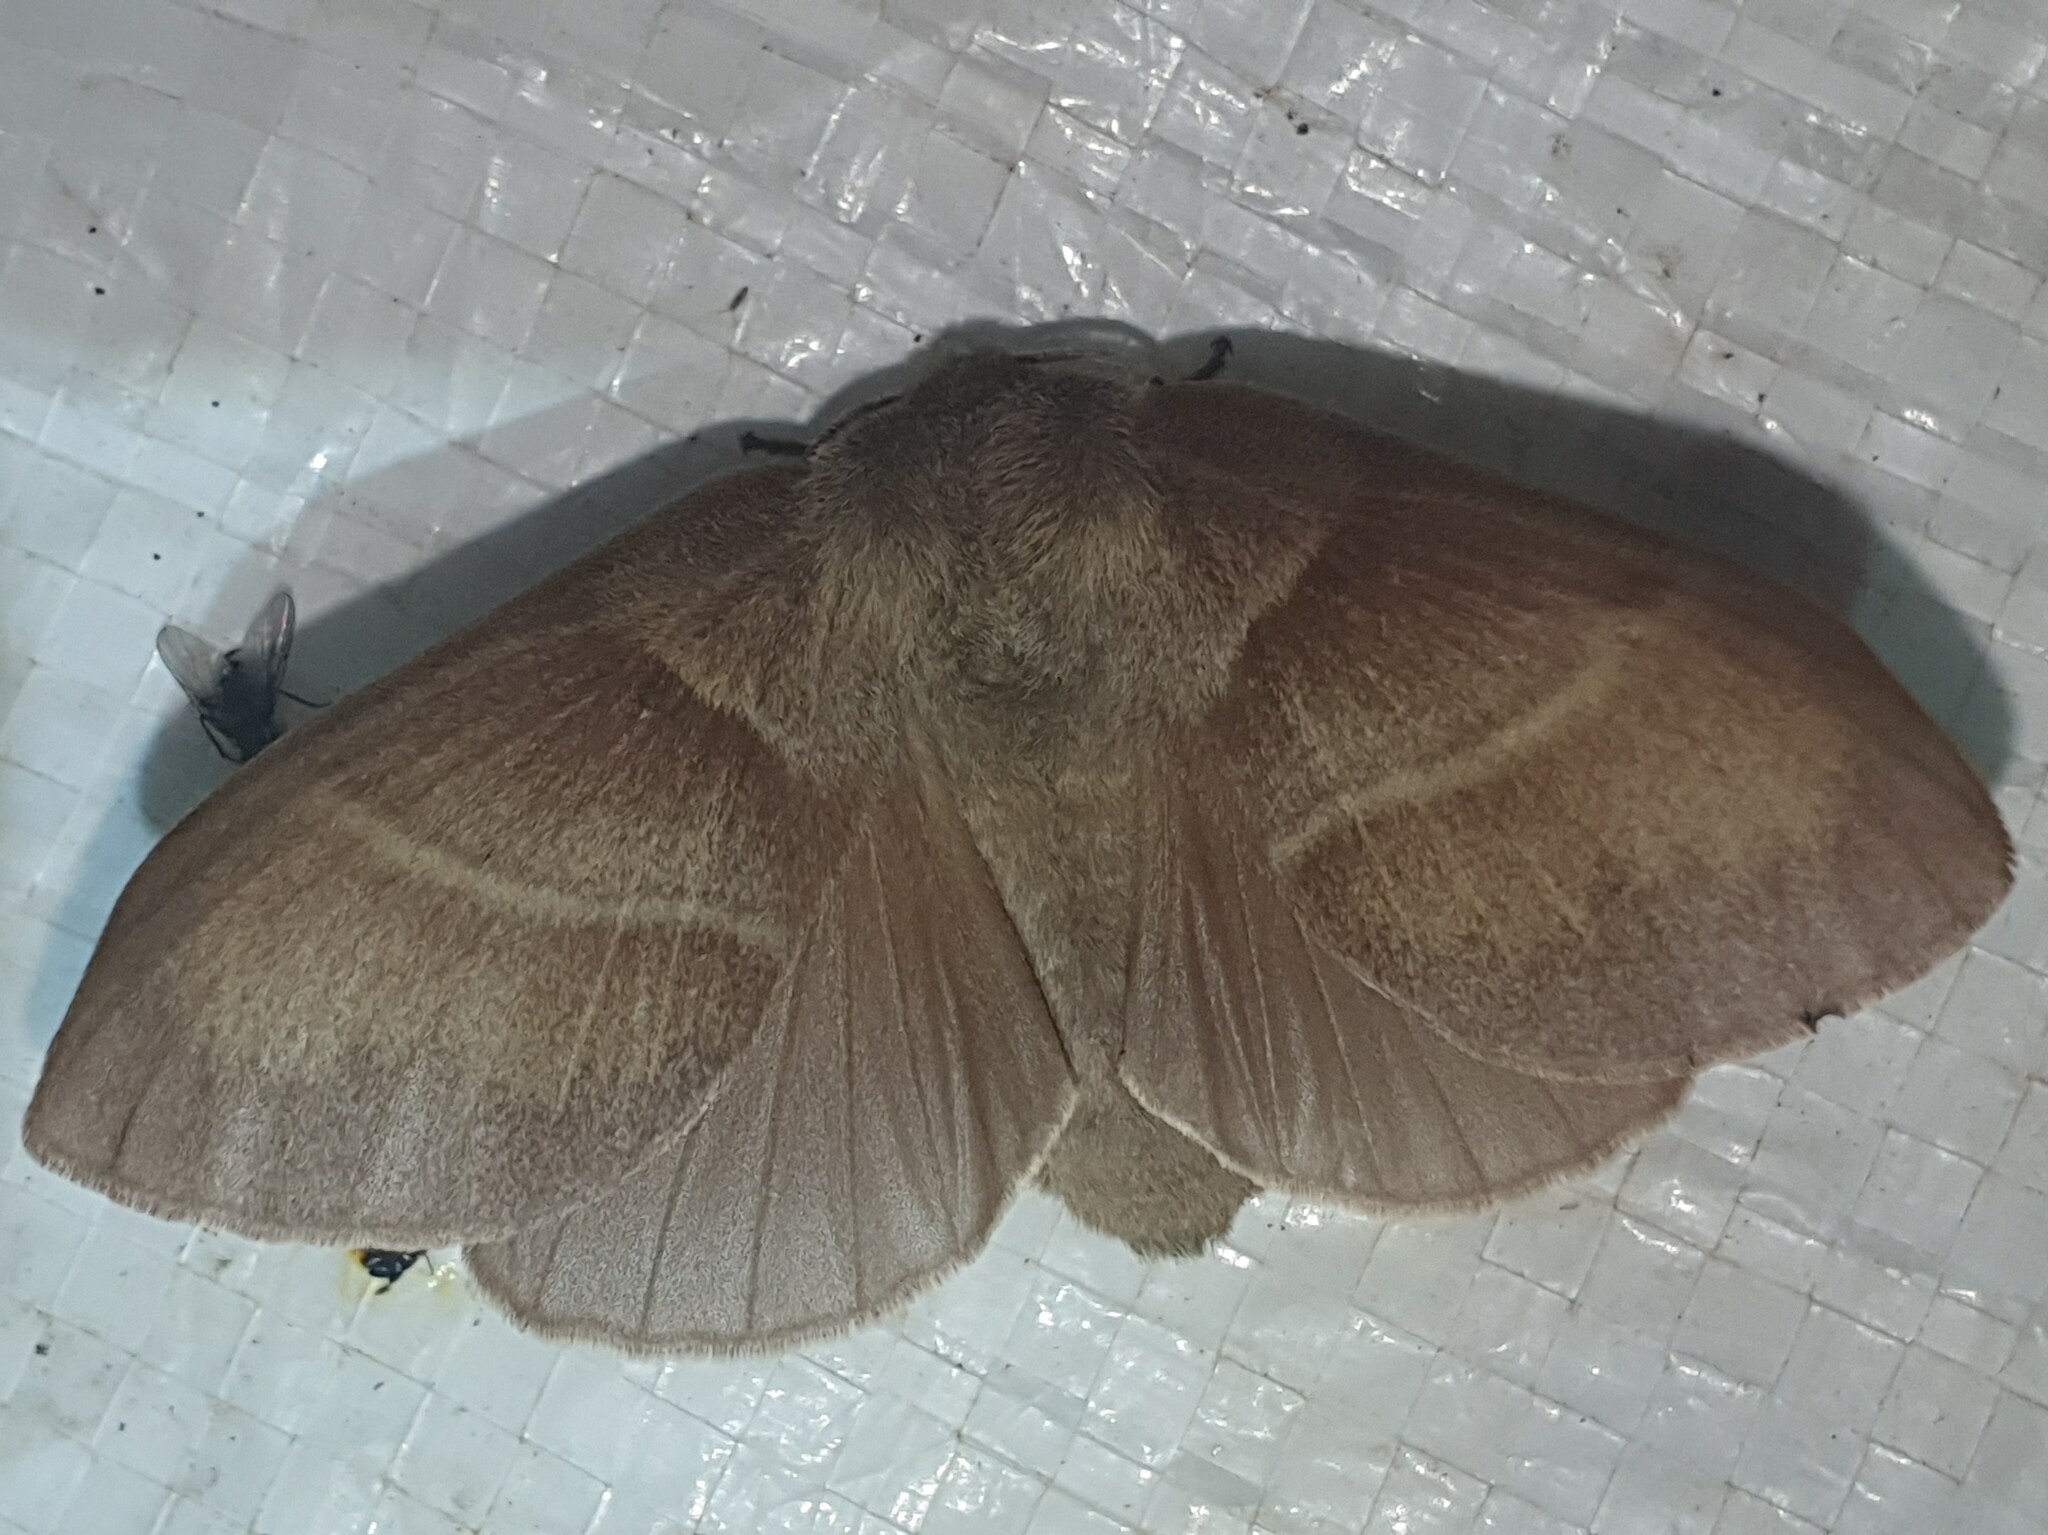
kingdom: Animalia
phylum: Arthropoda
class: Insecta
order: Lepidoptera
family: Lasiocampidae
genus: Macrothylacia
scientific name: Macrothylacia rubi
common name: Fox moth
